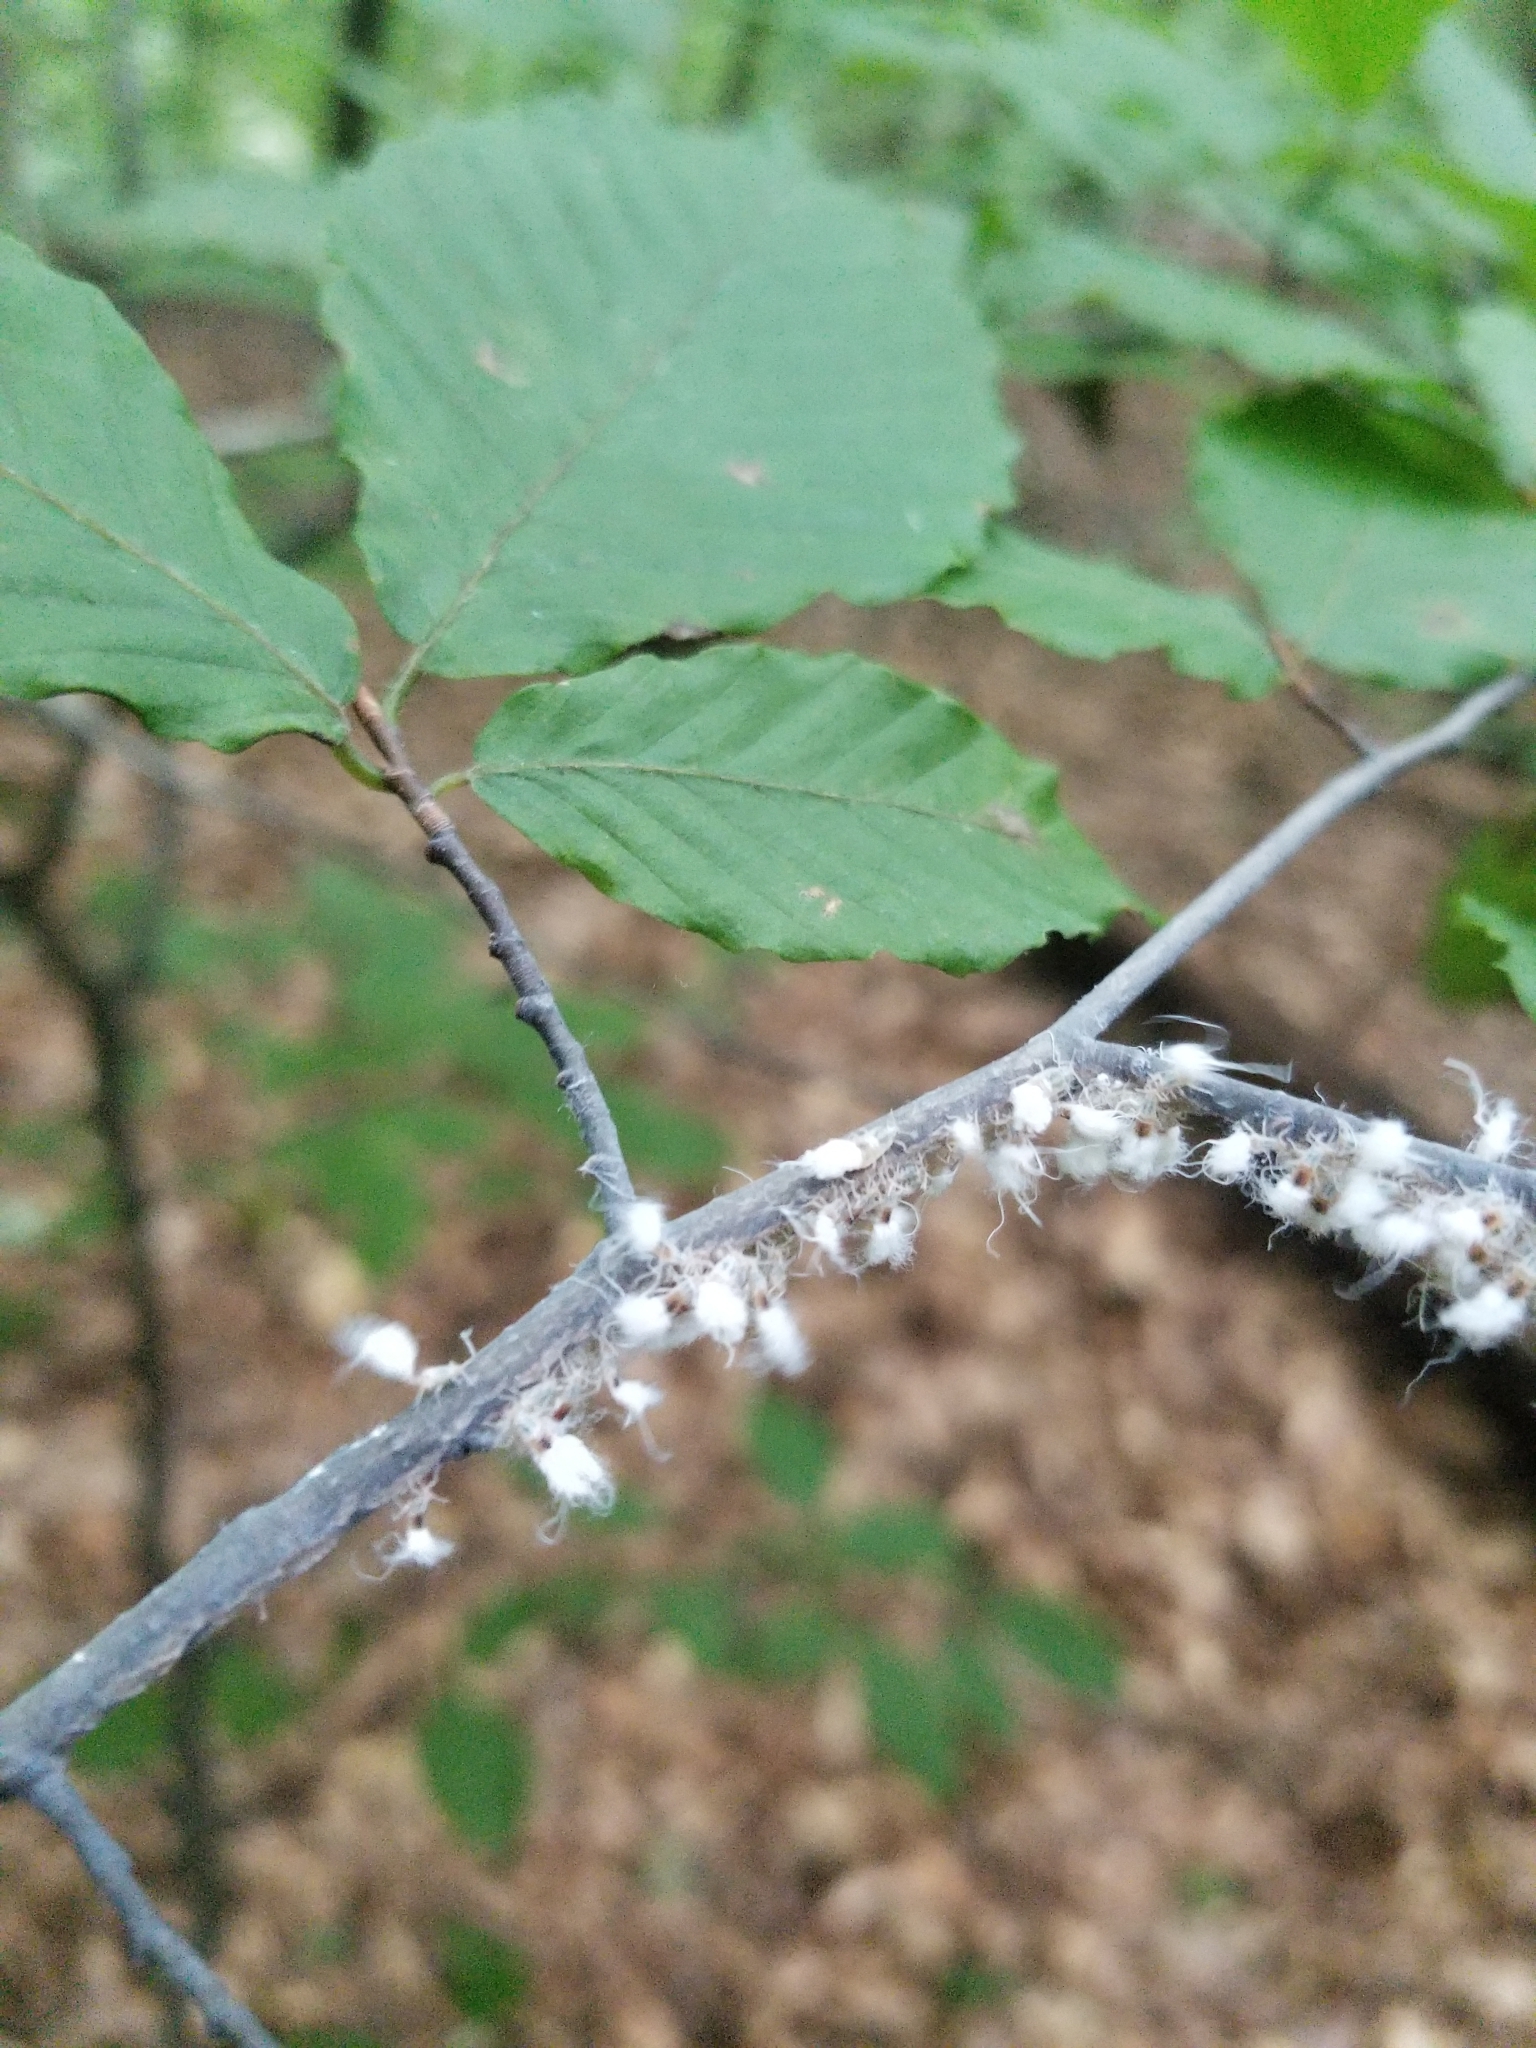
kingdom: Animalia
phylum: Arthropoda
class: Insecta
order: Hemiptera
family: Aphididae
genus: Grylloprociphilus
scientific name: Grylloprociphilus imbricator
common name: Beech blight aphid
